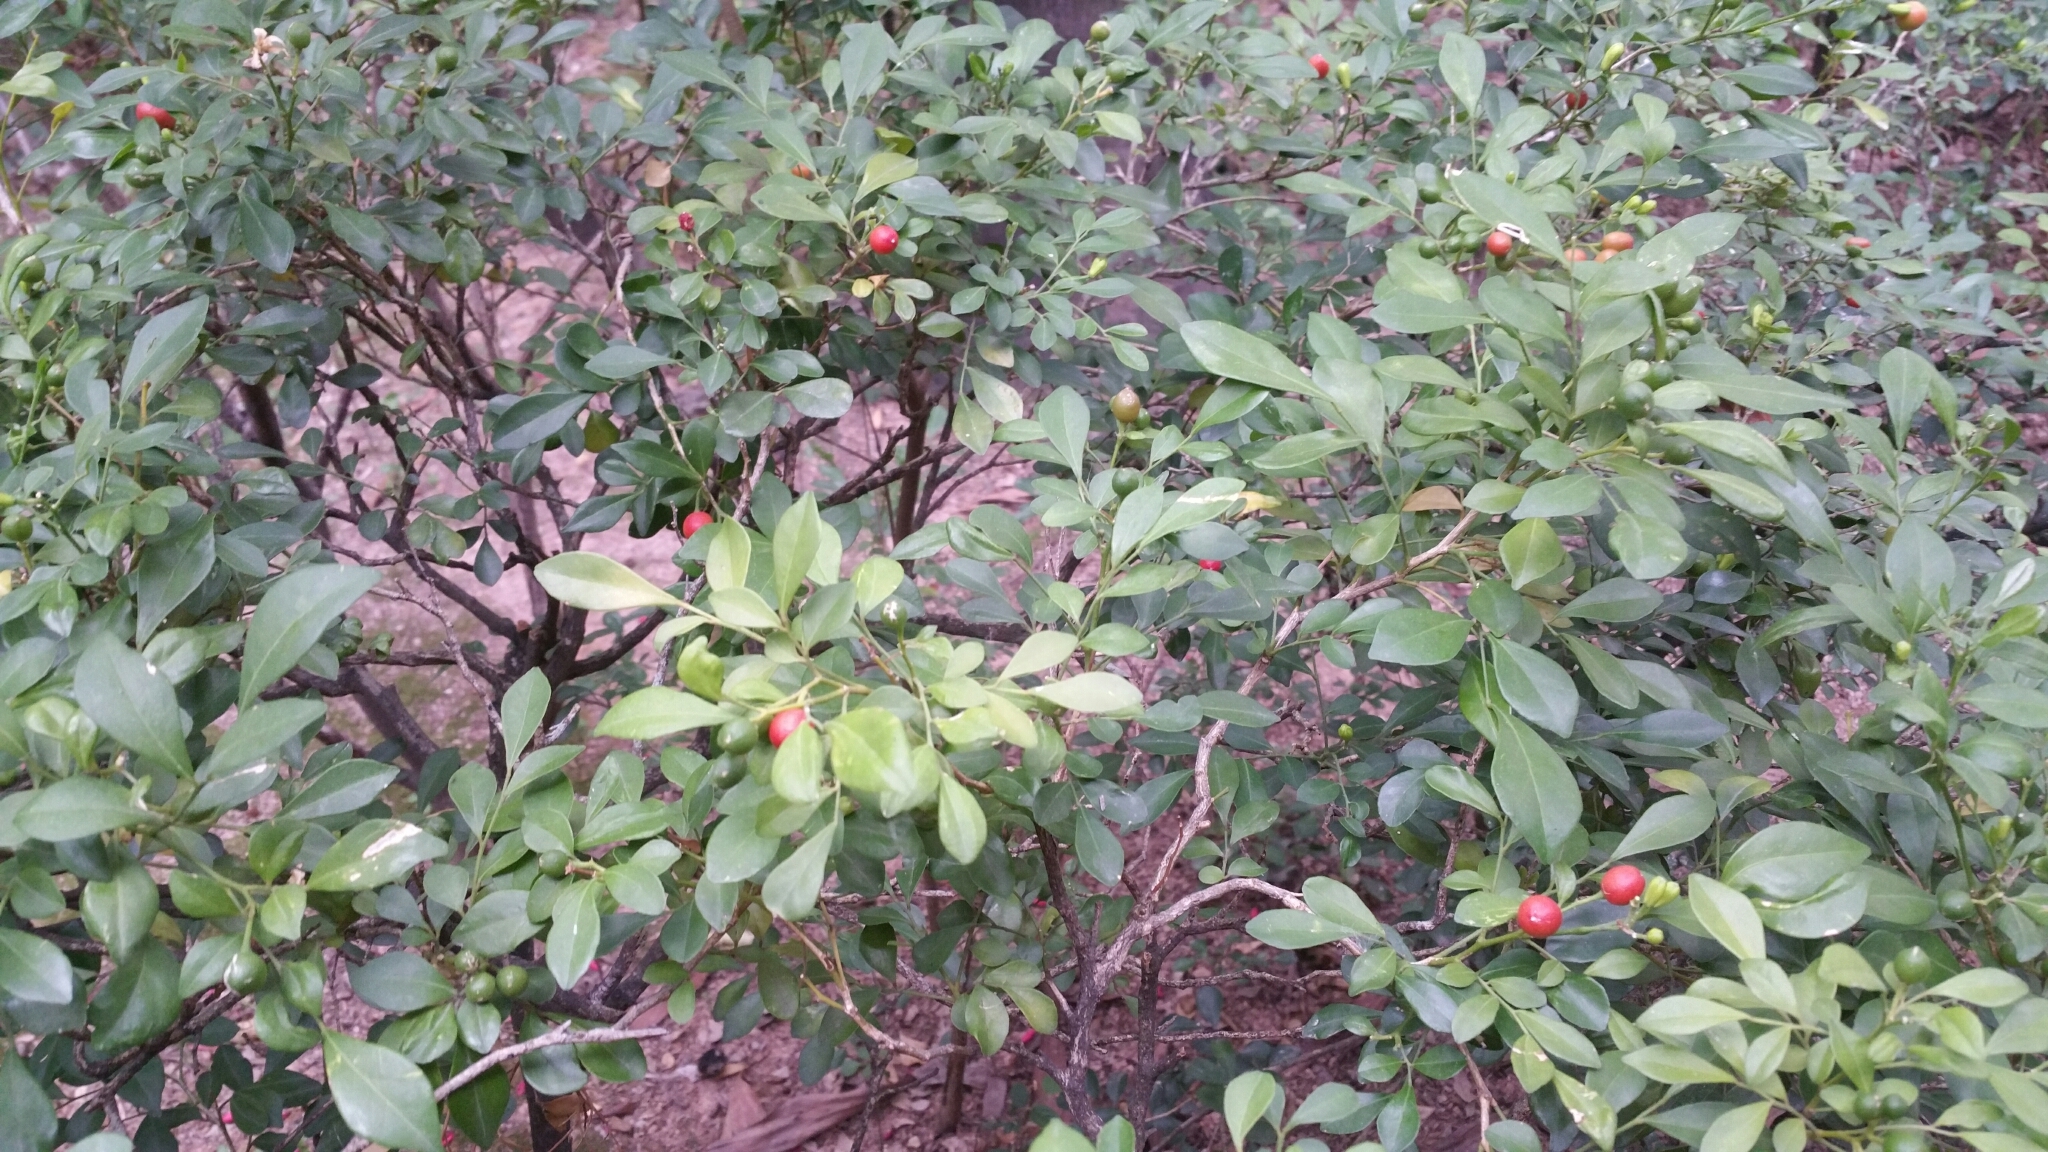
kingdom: Plantae
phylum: Tracheophyta
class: Magnoliopsida
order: Sapindales
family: Rutaceae
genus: Murraya
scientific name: Murraya paniculata
